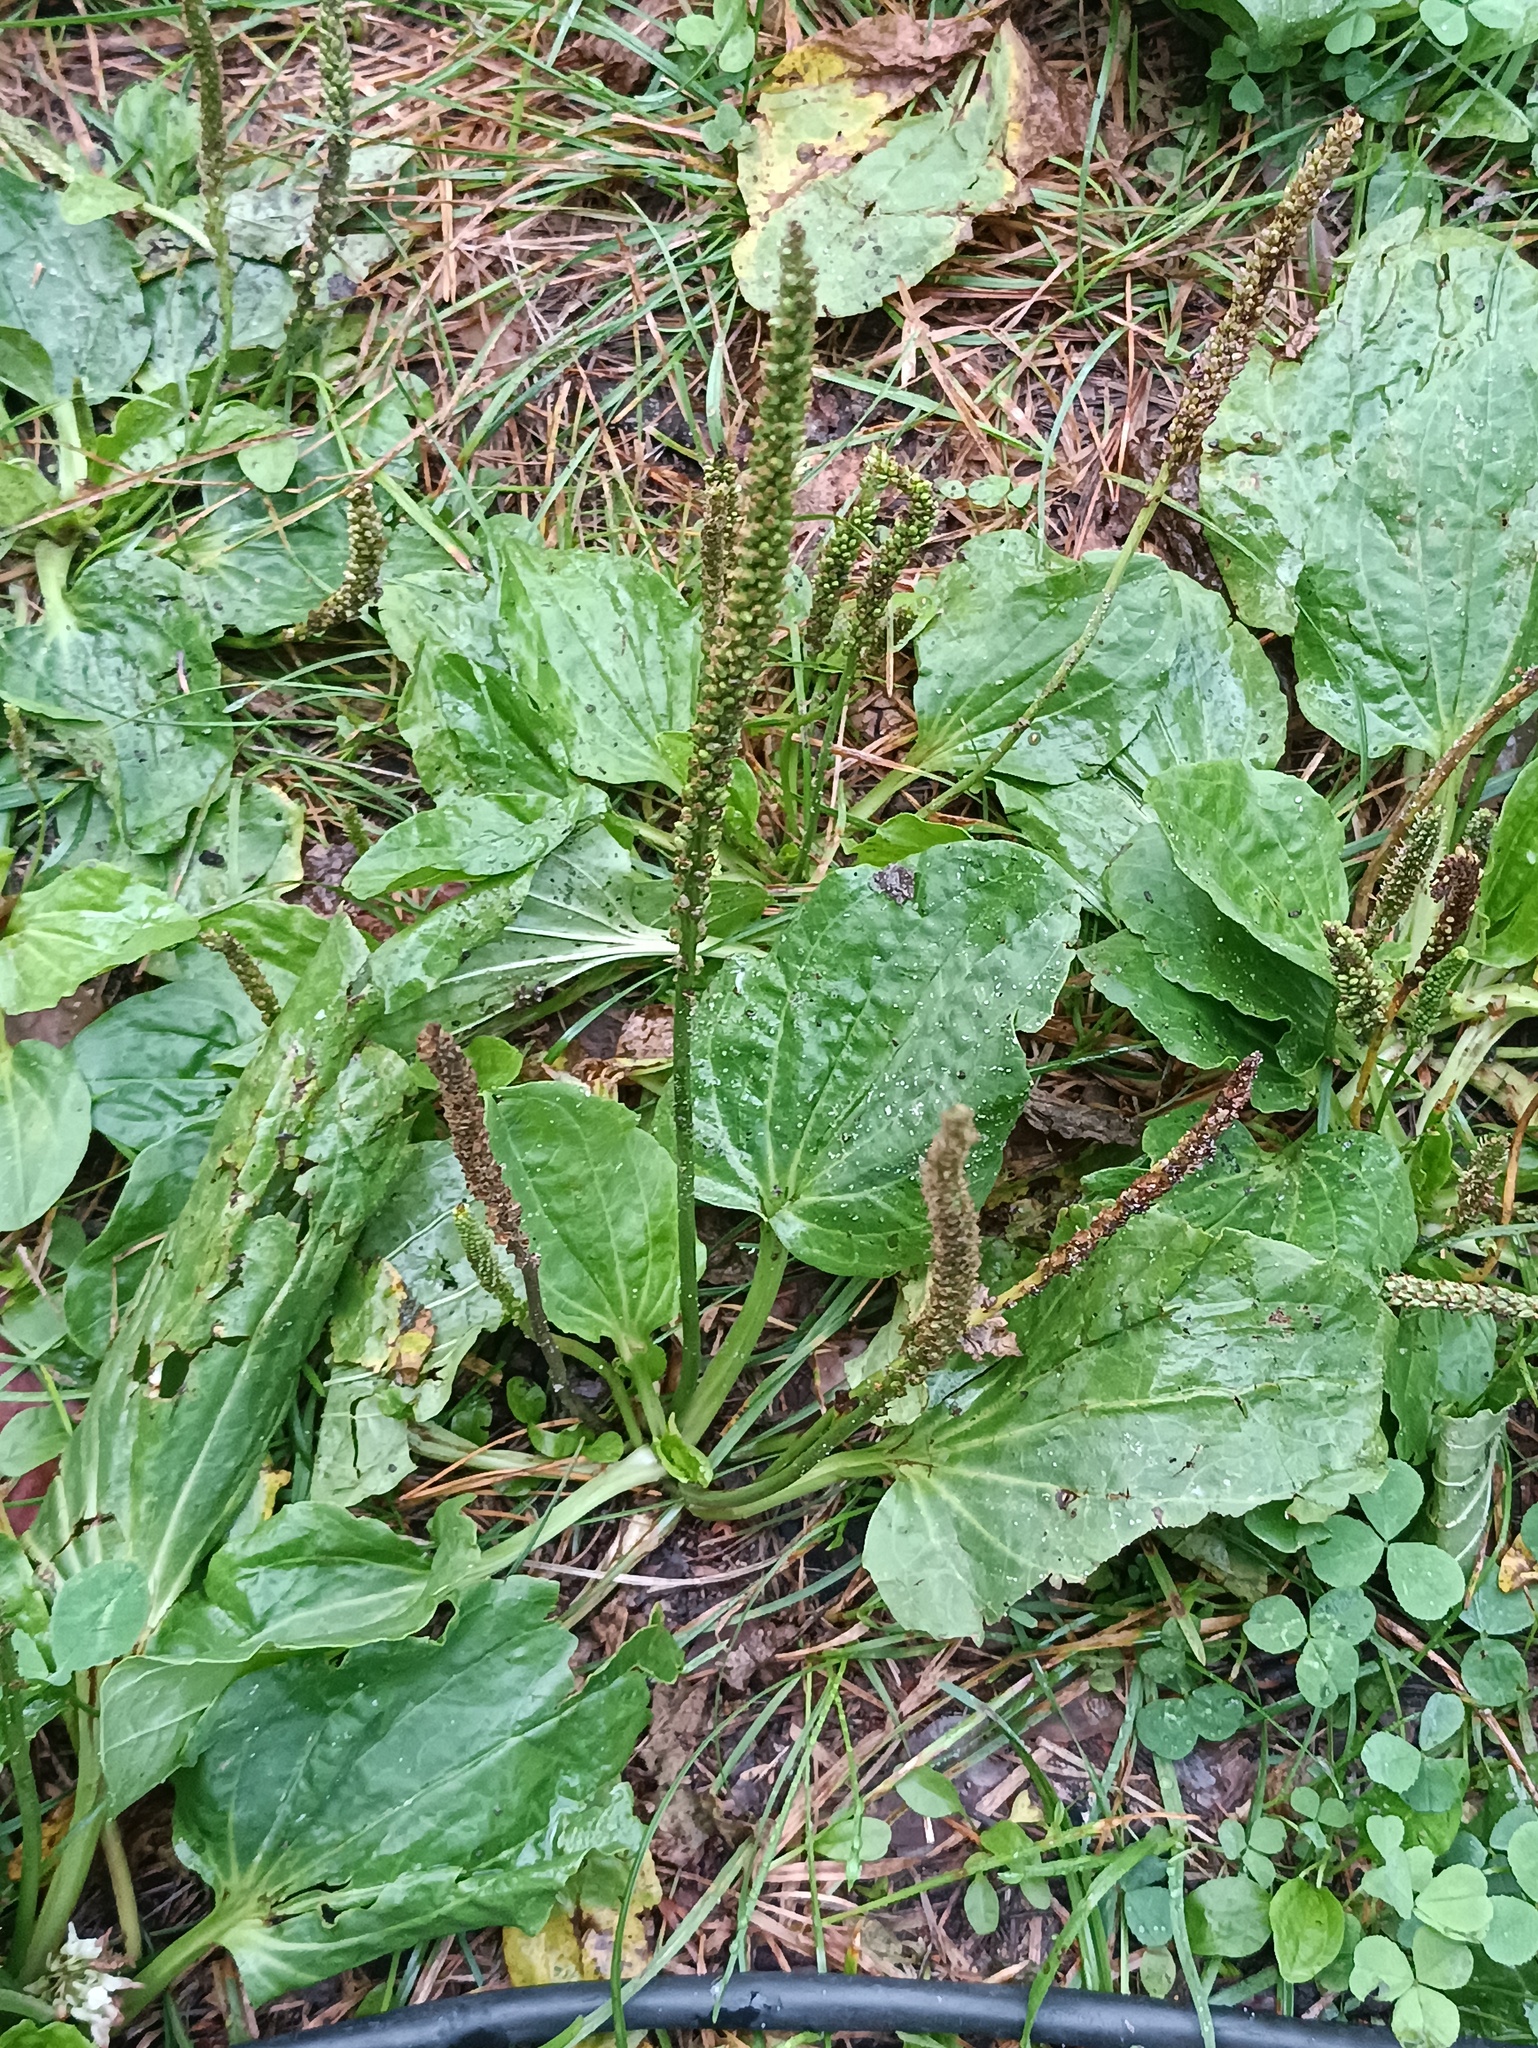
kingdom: Plantae
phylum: Tracheophyta
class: Magnoliopsida
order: Lamiales
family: Plantaginaceae
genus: Plantago
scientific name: Plantago major
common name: Common plantain
